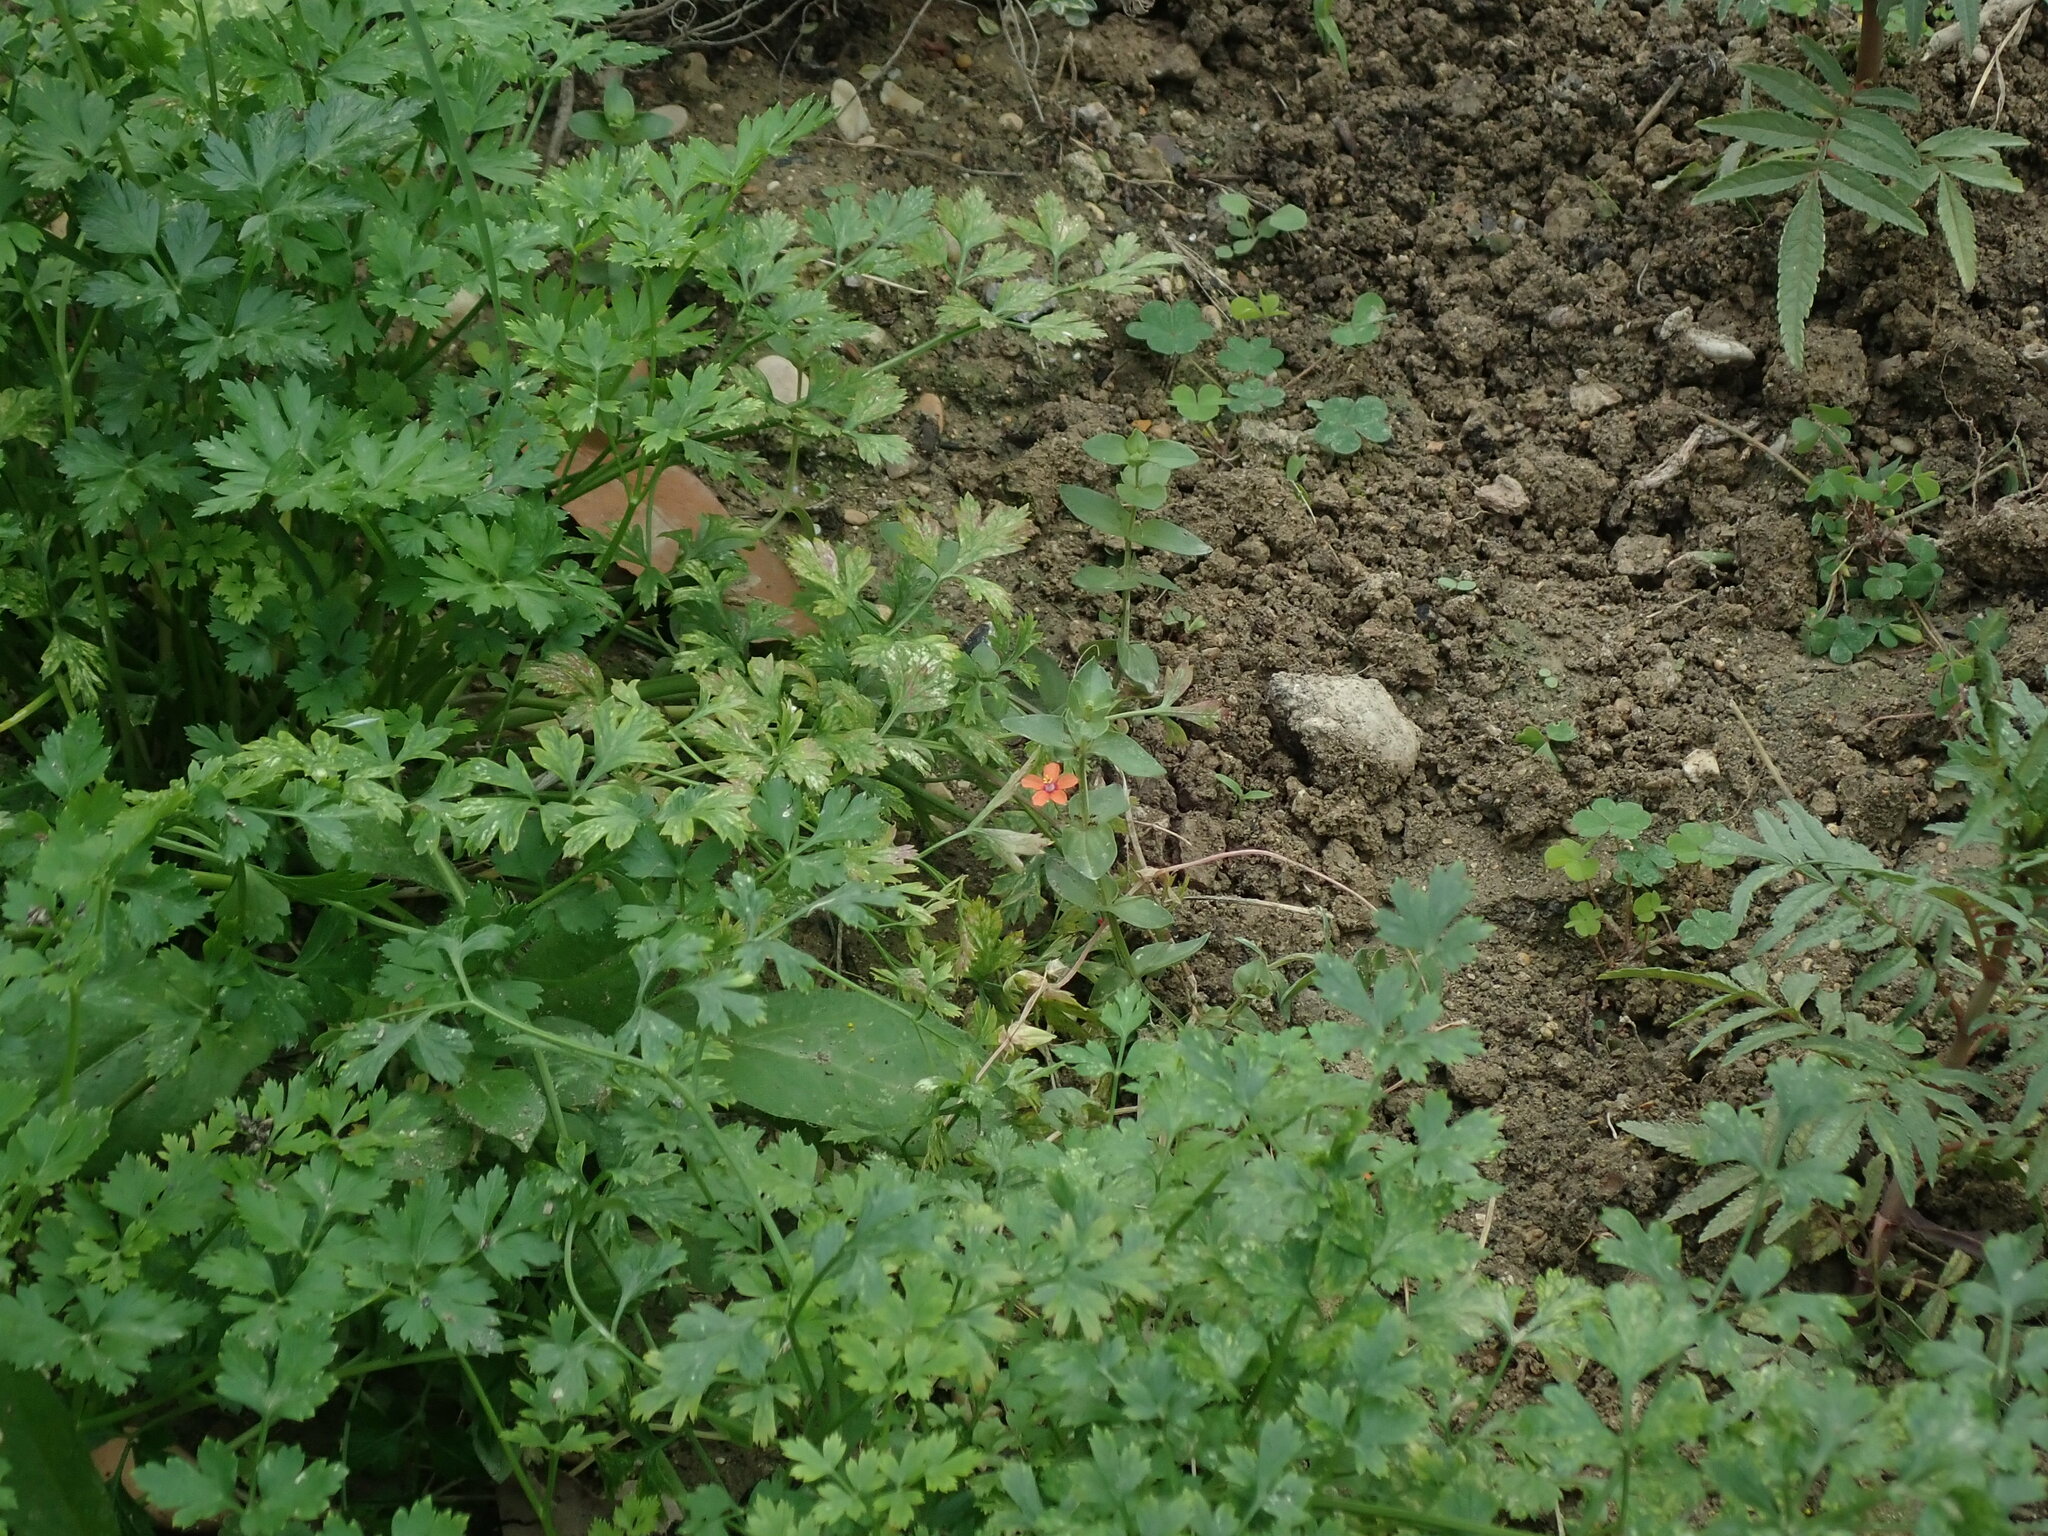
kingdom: Plantae
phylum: Tracheophyta
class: Magnoliopsida
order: Ericales
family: Primulaceae
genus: Lysimachia
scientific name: Lysimachia arvensis
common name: Scarlet pimpernel
